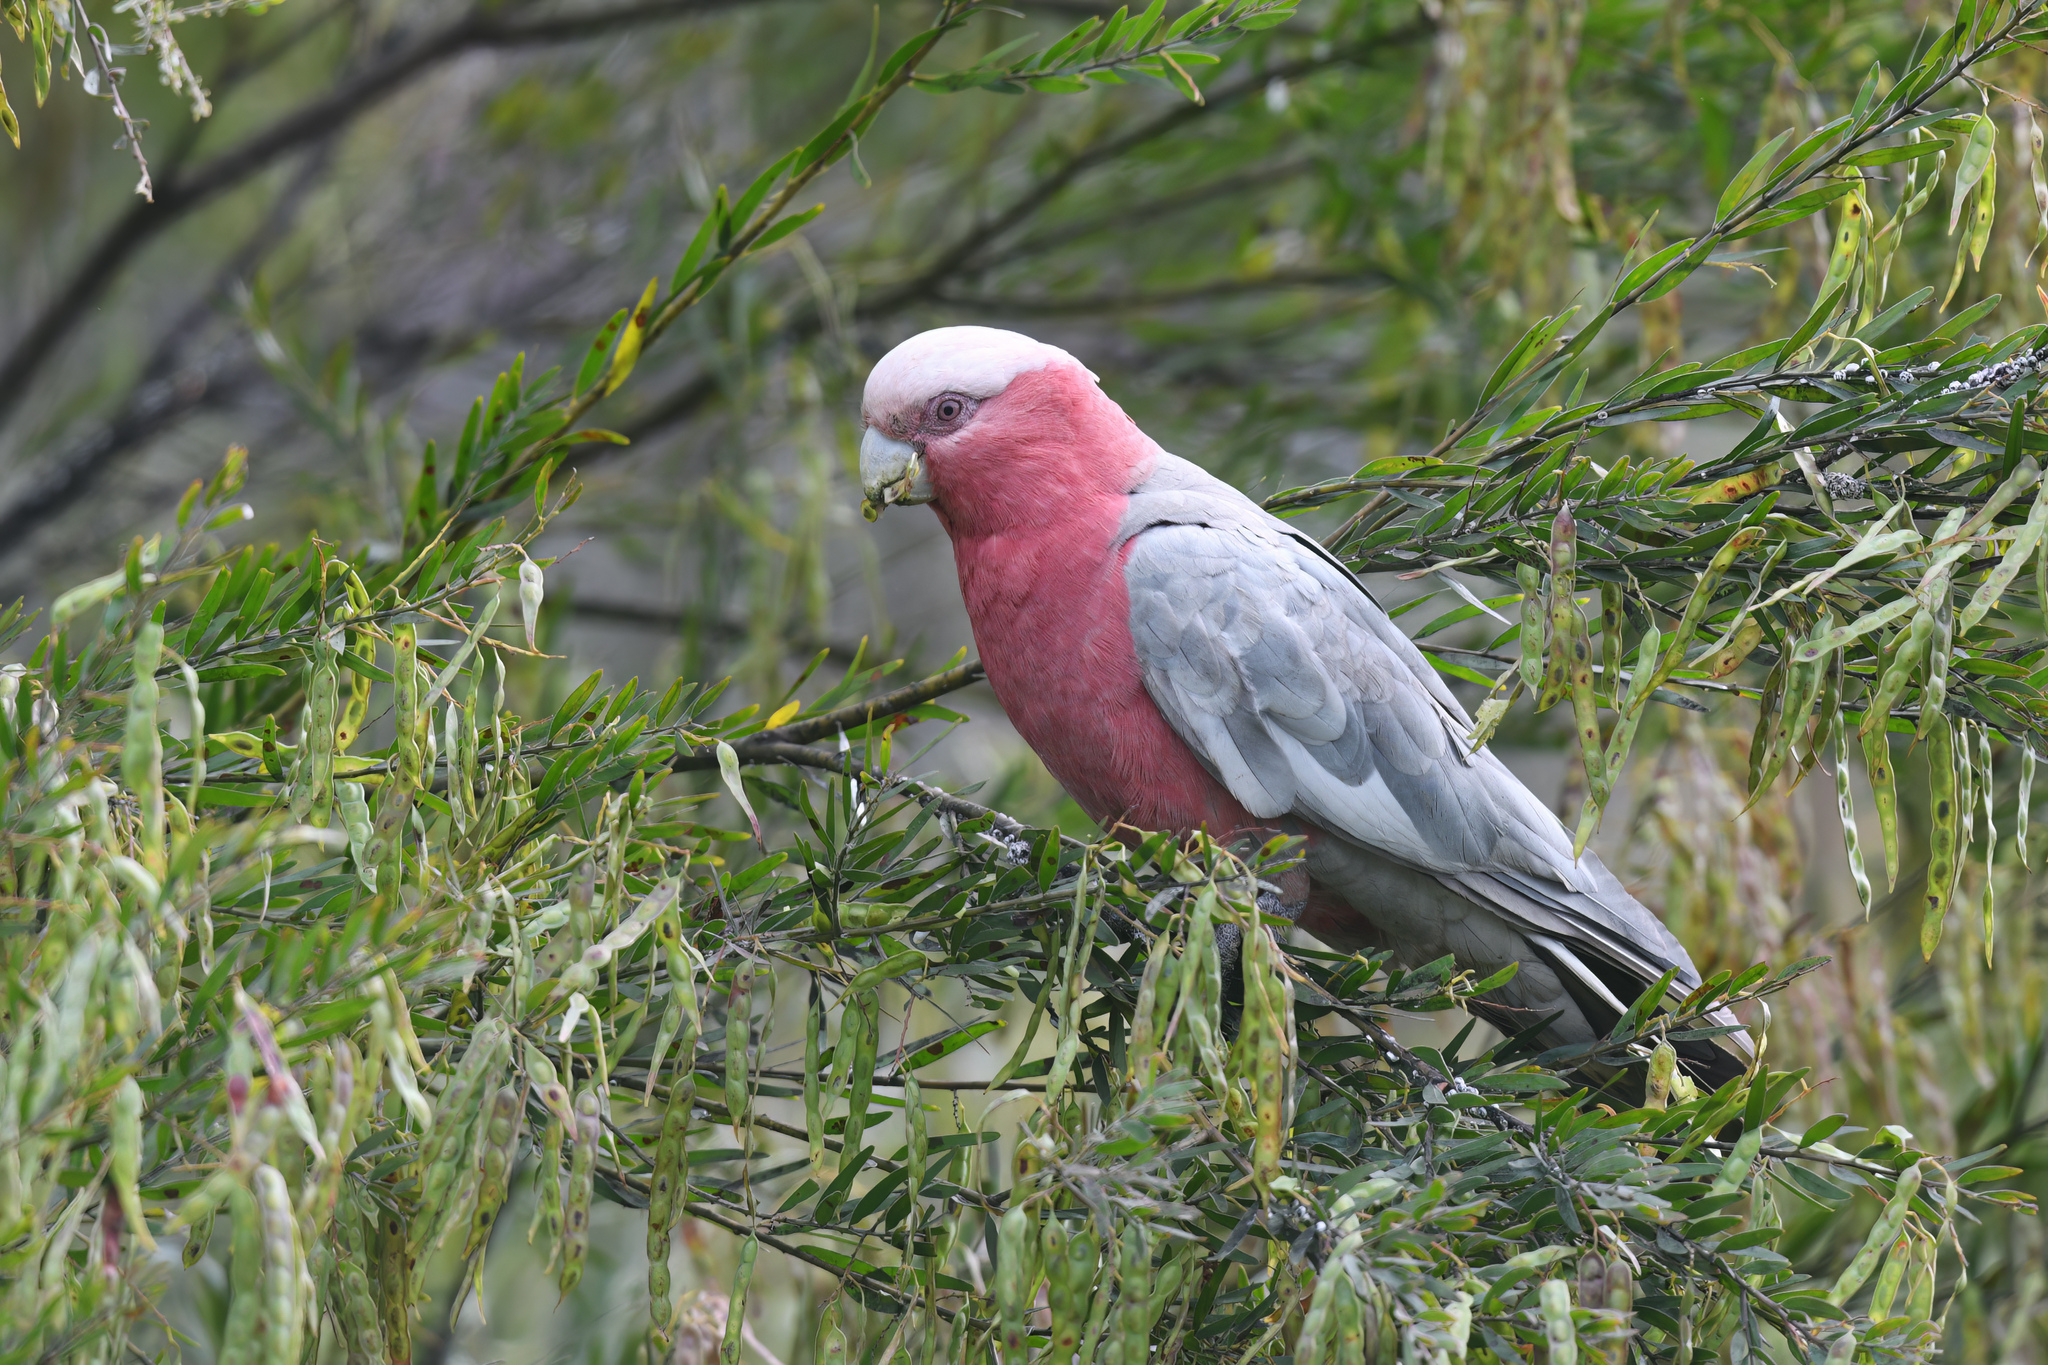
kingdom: Animalia
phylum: Chordata
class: Aves
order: Psittaciformes
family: Psittacidae
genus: Eolophus
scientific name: Eolophus roseicapilla
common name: Galah
